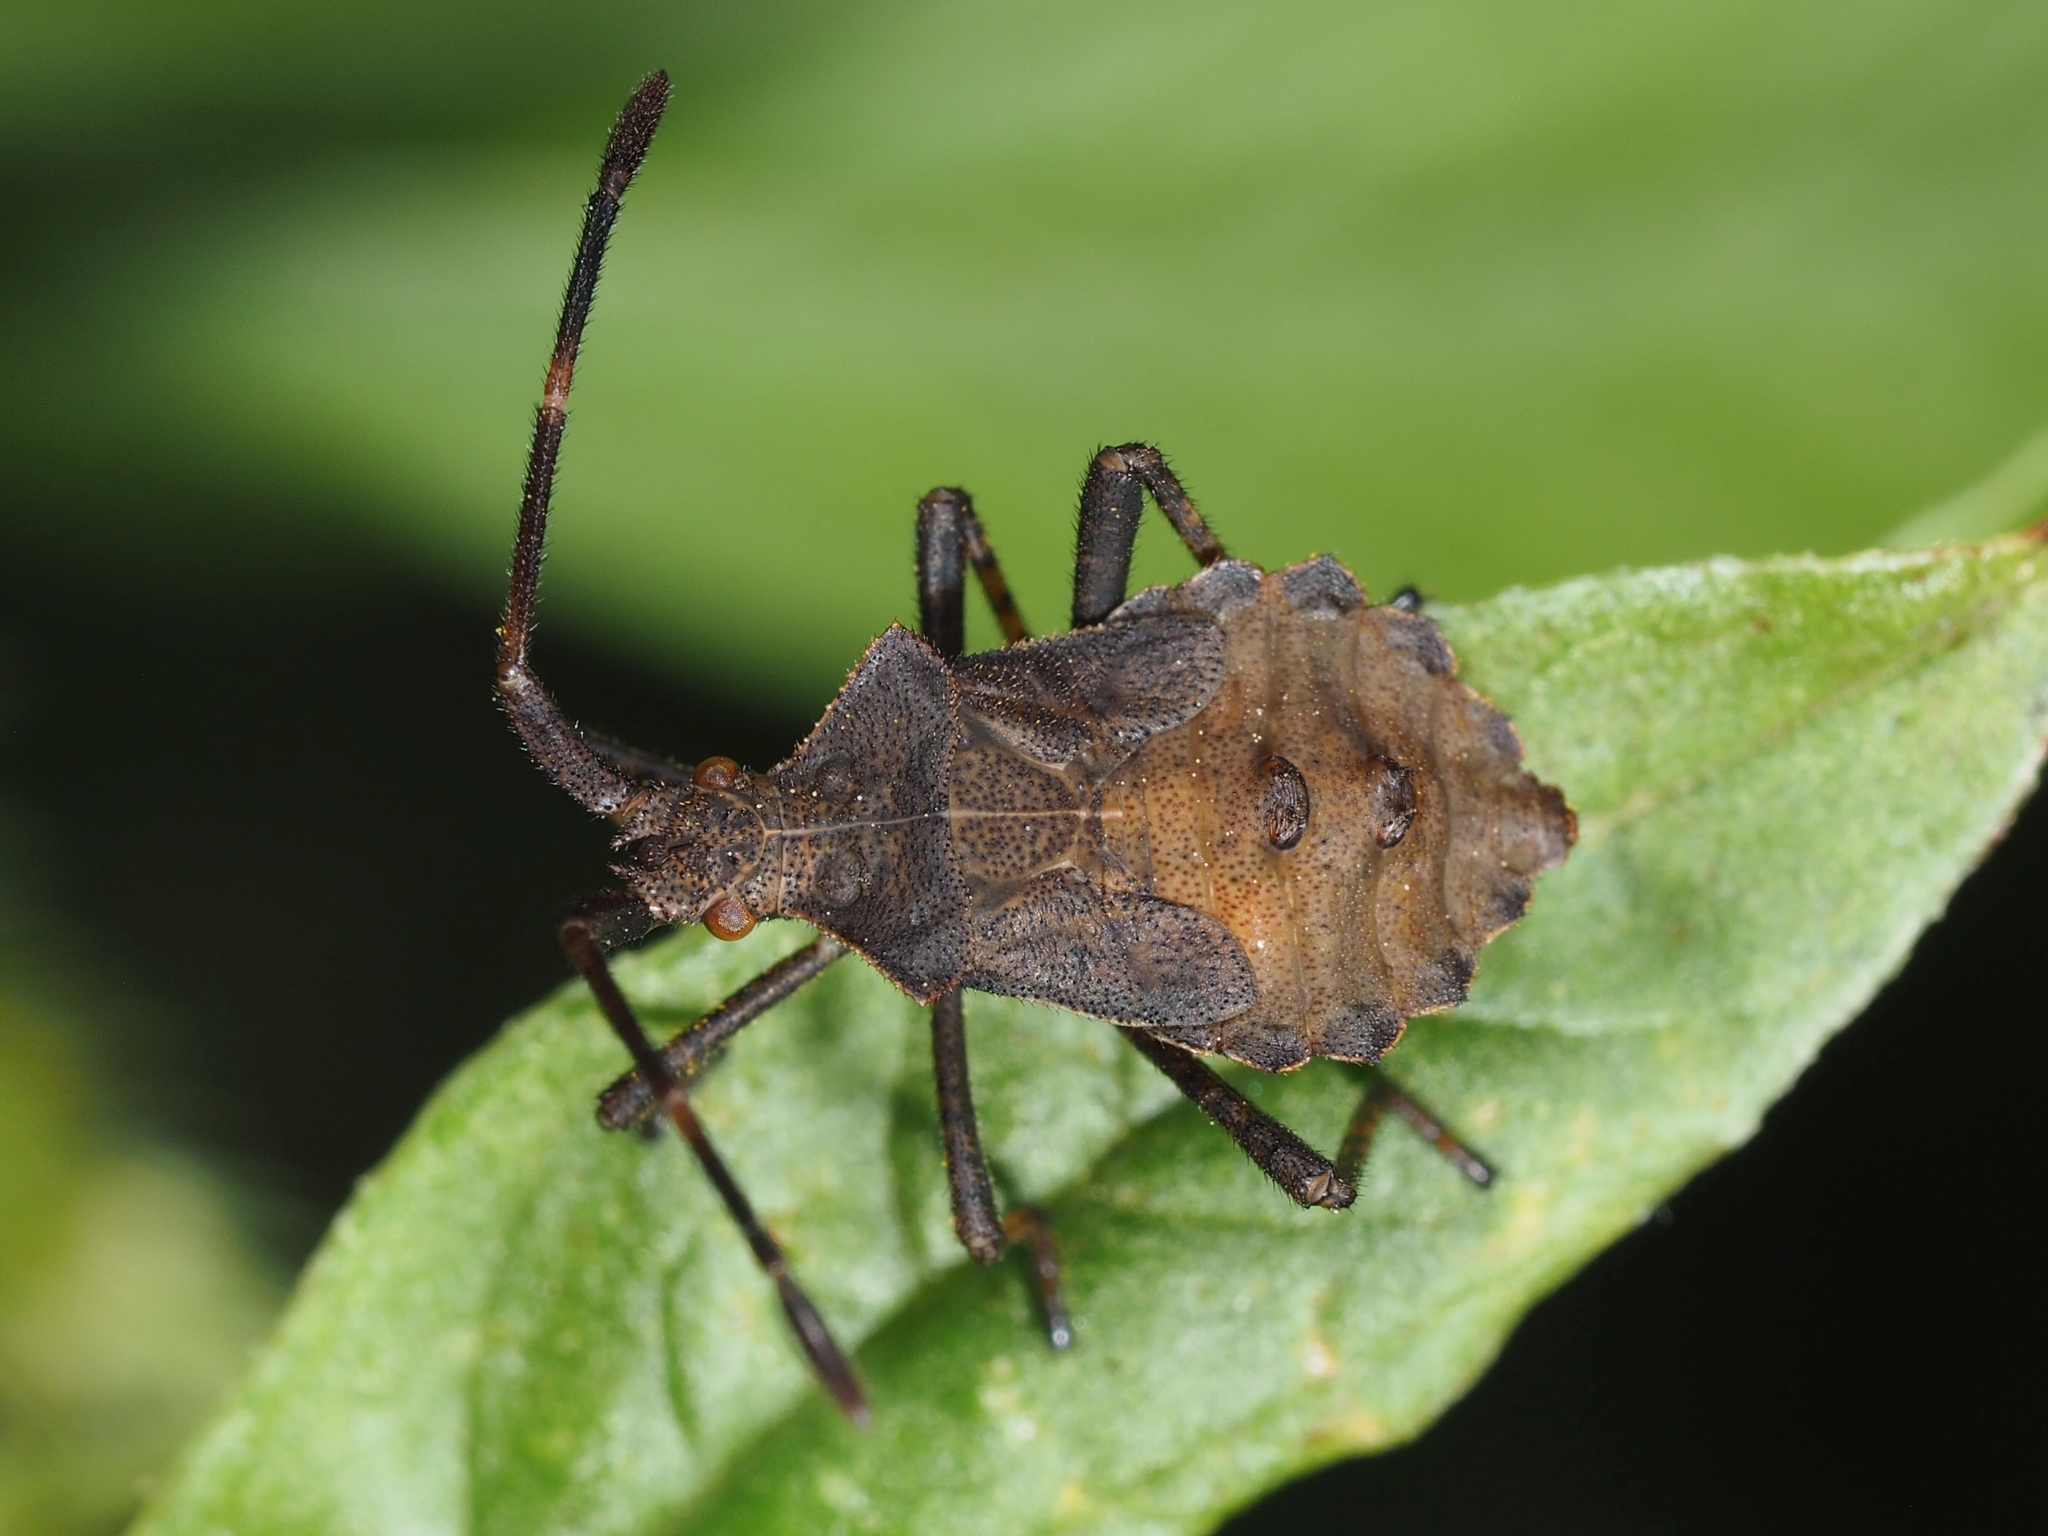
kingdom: Animalia
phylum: Arthropoda
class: Insecta
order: Hemiptera
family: Coreidae
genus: Coreus
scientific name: Coreus marginatus
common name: Dock bug
